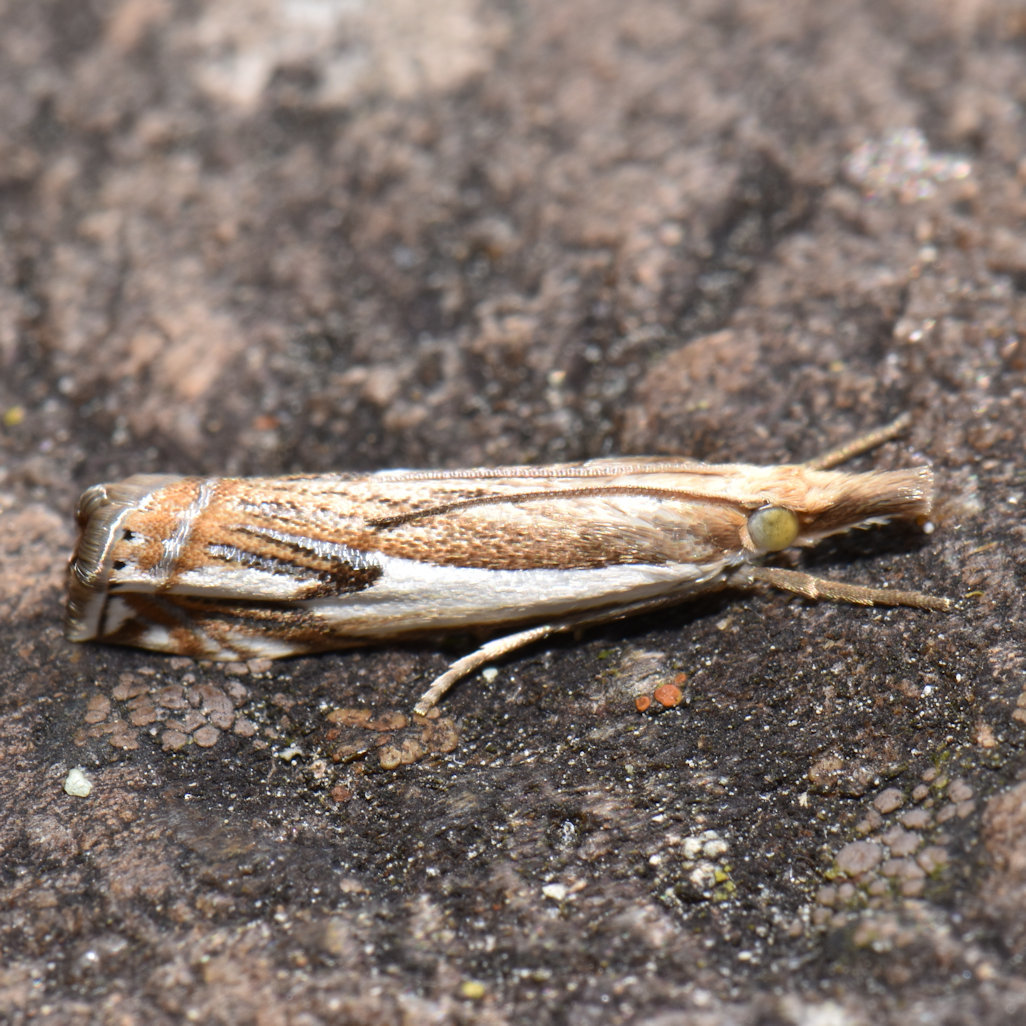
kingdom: Animalia
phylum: Arthropoda
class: Insecta
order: Lepidoptera
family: Crambidae
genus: Crambus
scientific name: Crambus agitatellus
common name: Double-banded grass-veneer
